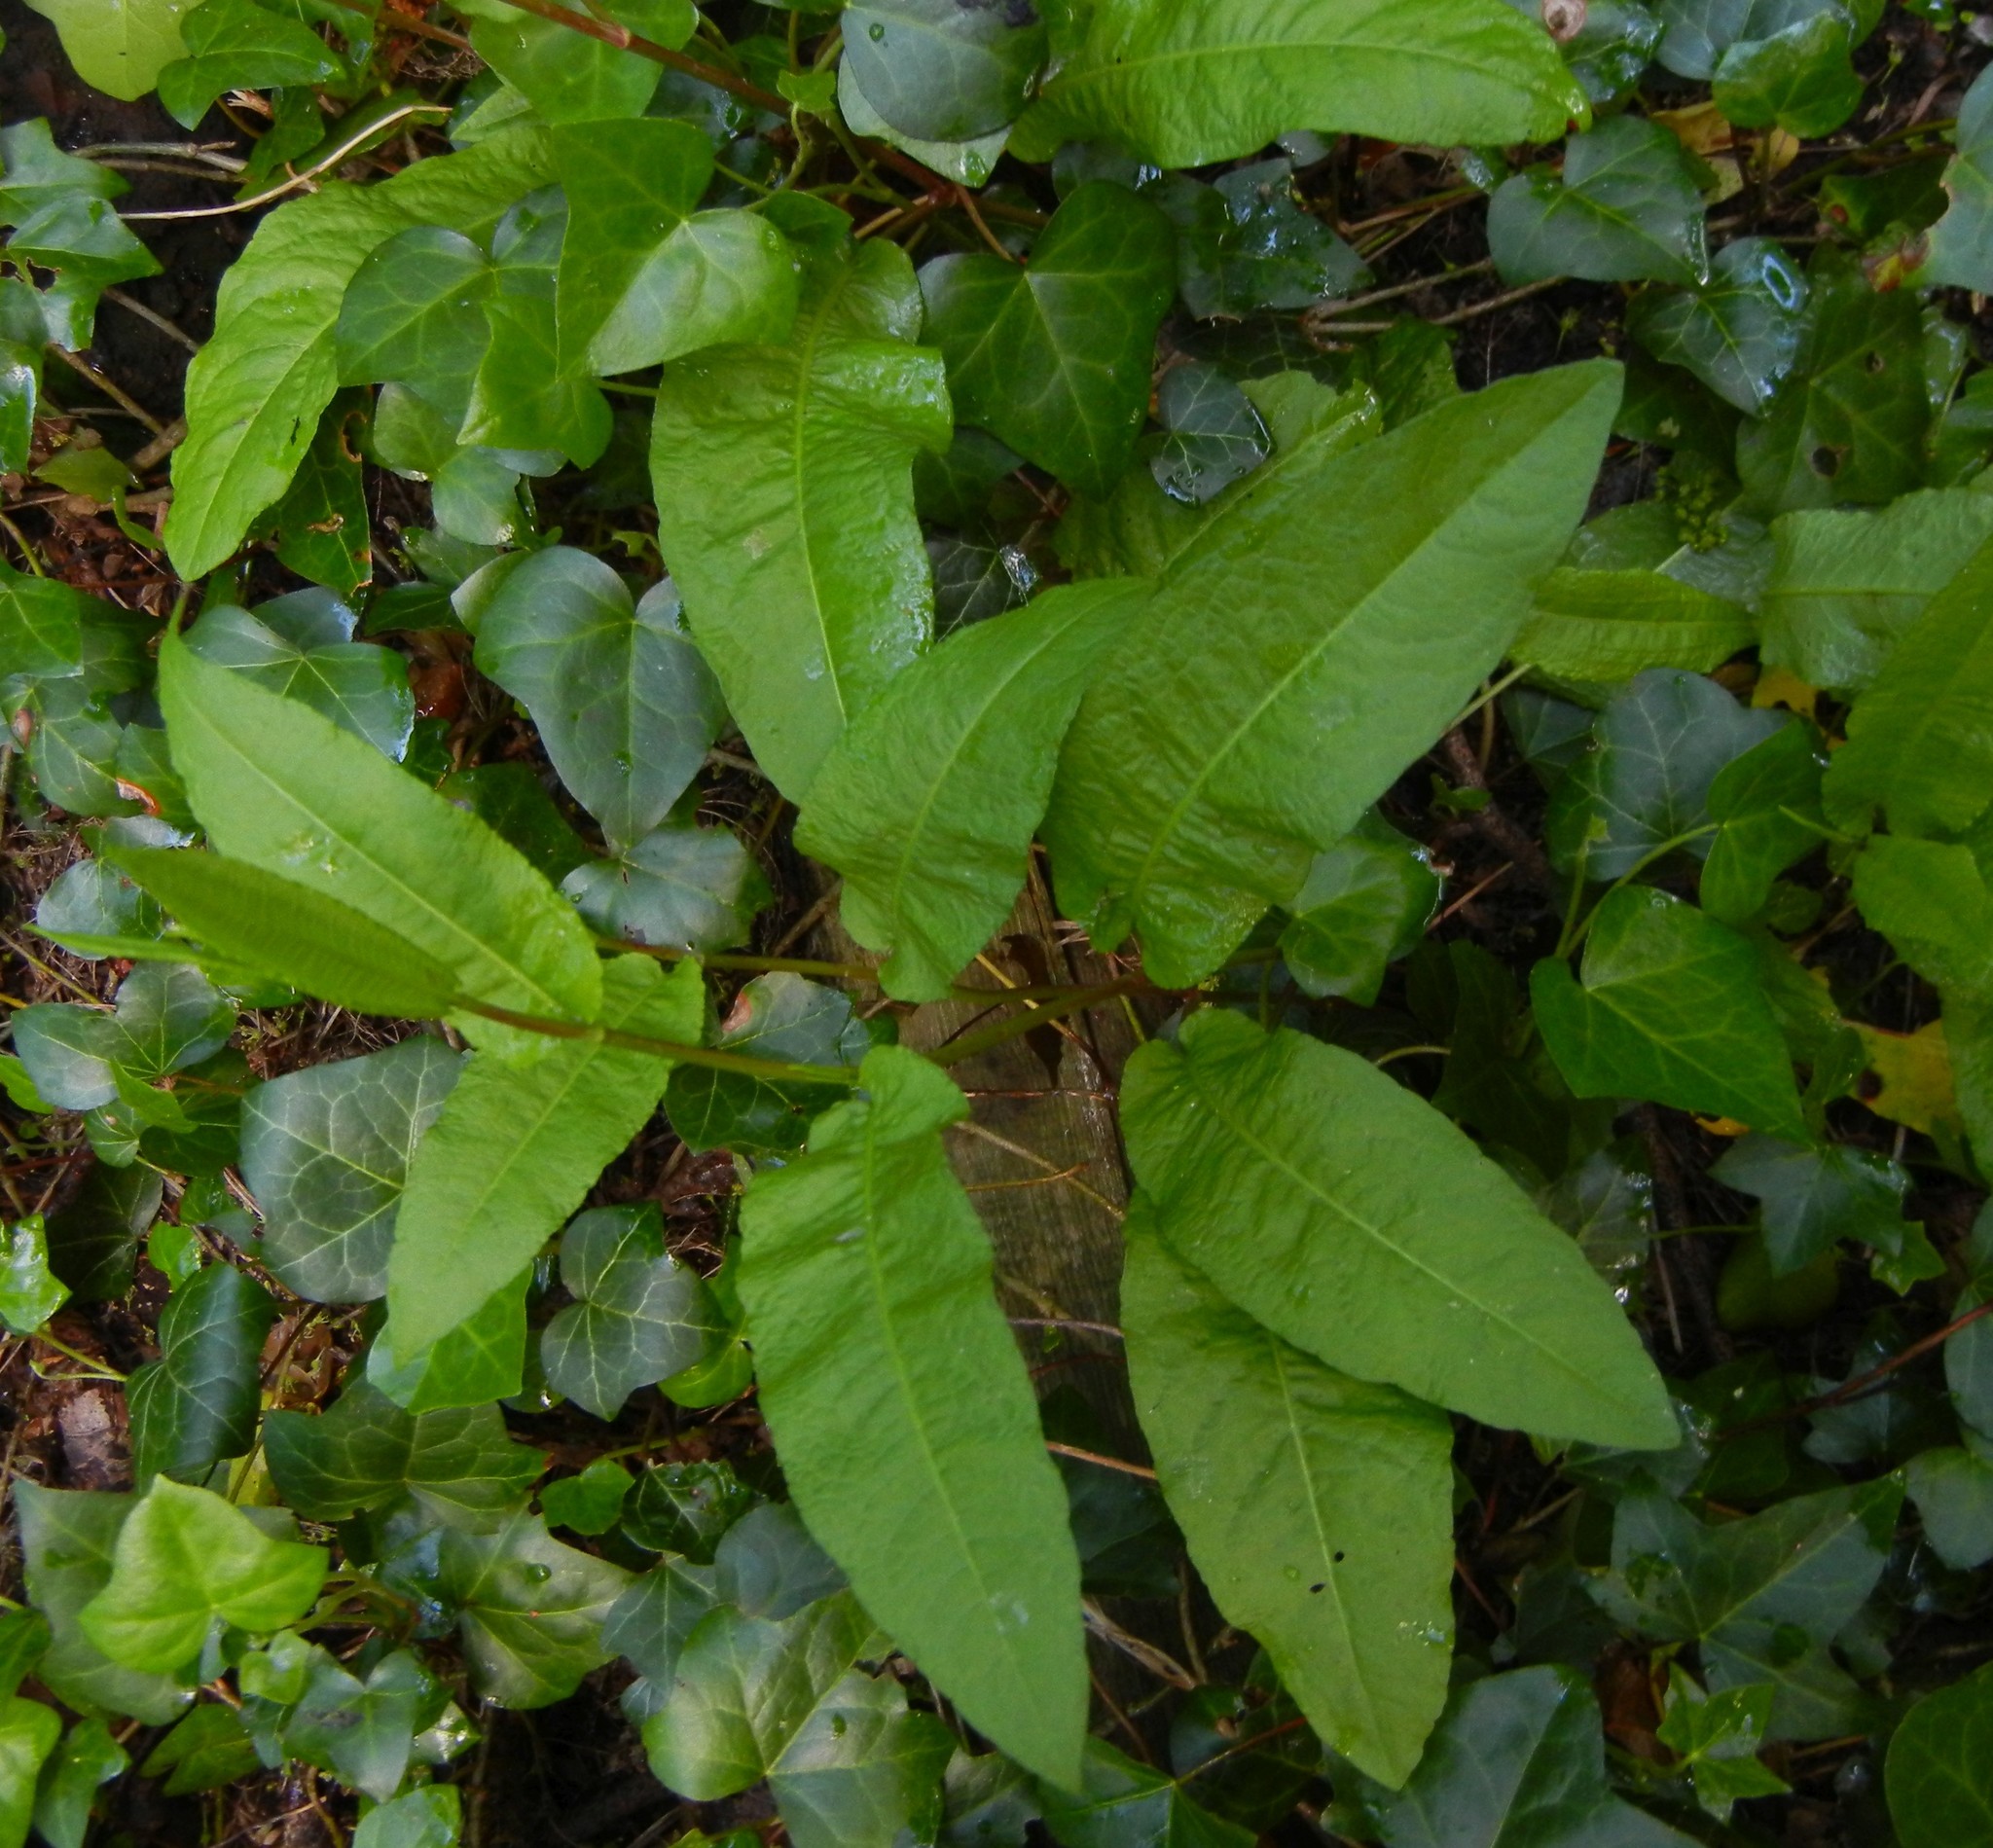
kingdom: Plantae
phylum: Tracheophyta
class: Magnoliopsida
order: Caryophyllales
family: Polygonaceae
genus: Rumex
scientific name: Rumex sanguineus
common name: Wood dock
